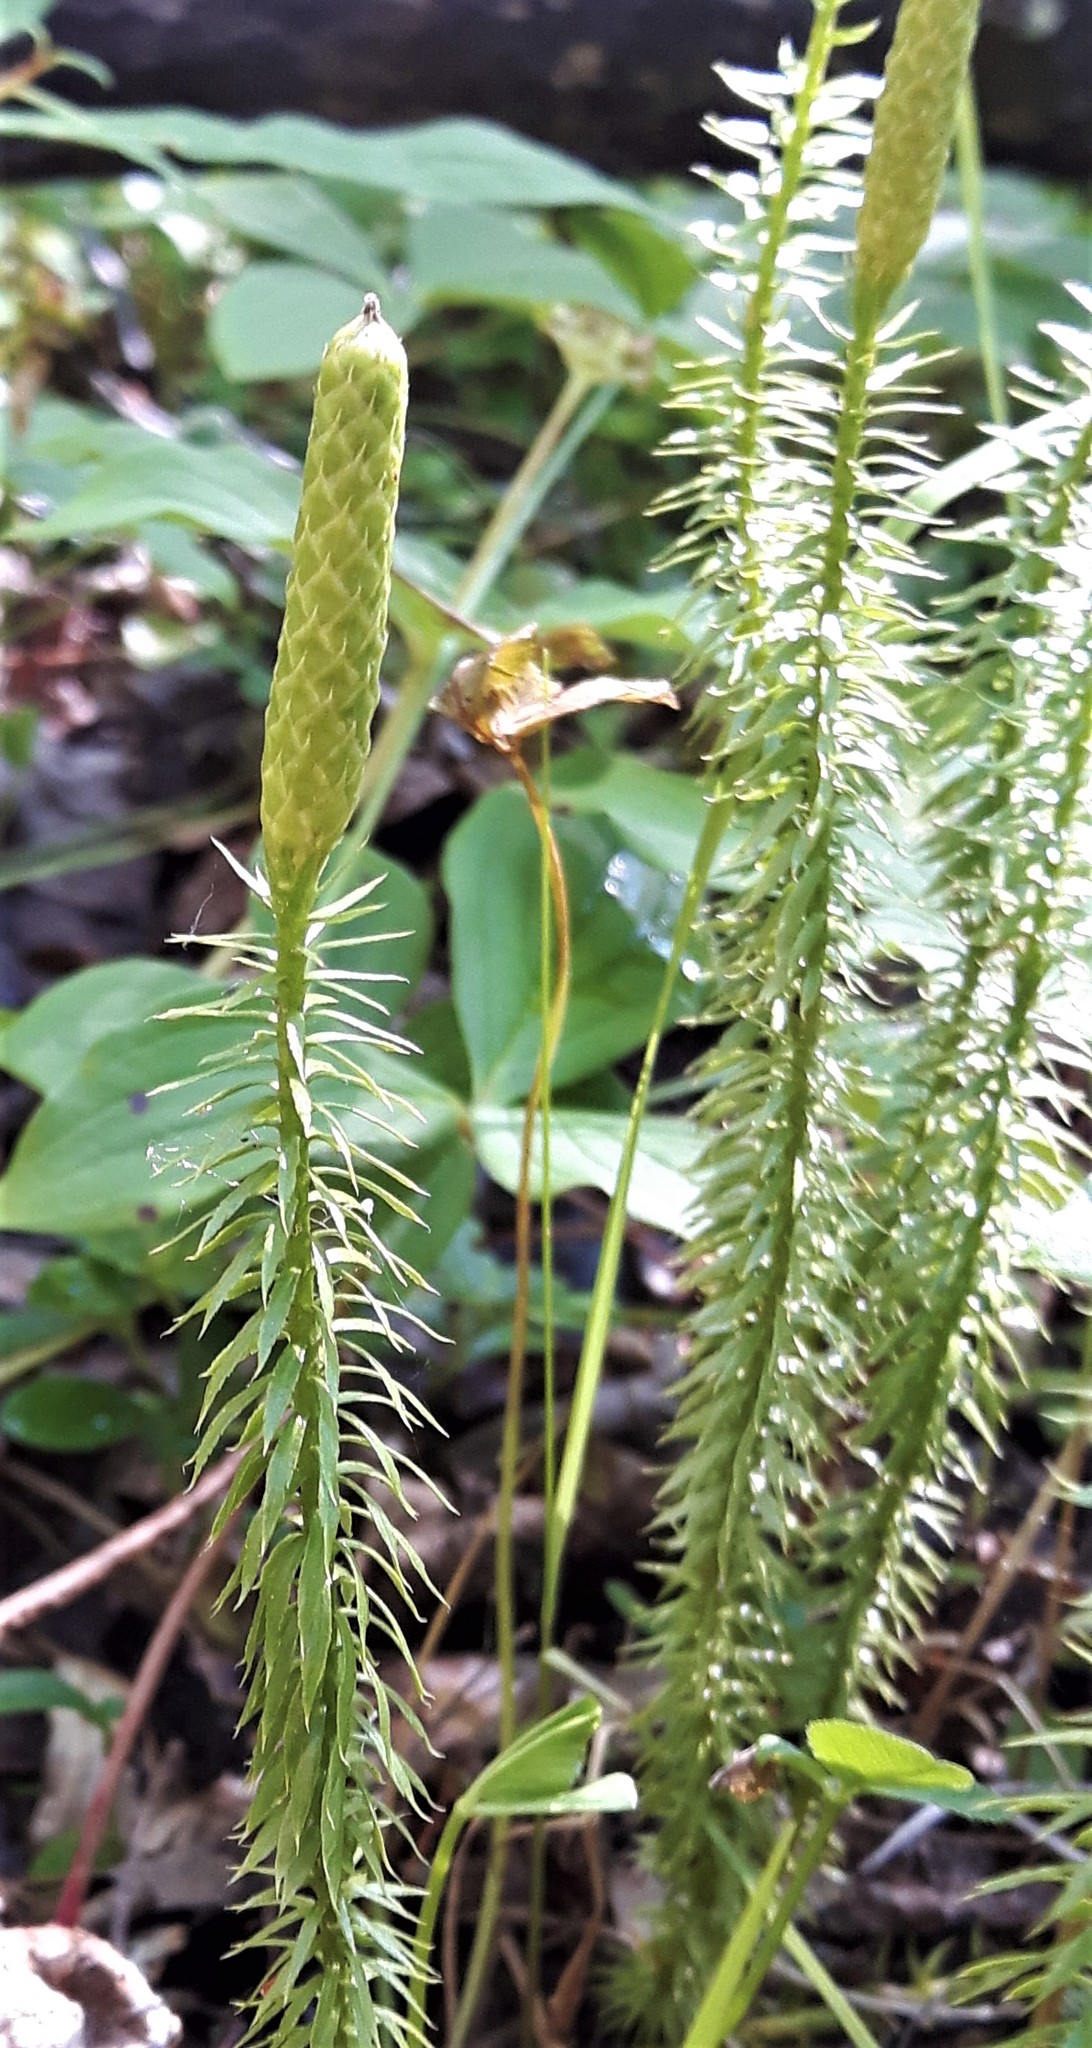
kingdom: Plantae
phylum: Tracheophyta
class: Lycopodiopsida
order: Lycopodiales
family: Lycopodiaceae
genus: Spinulum
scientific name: Spinulum annotinum
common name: Interrupted club-moss
